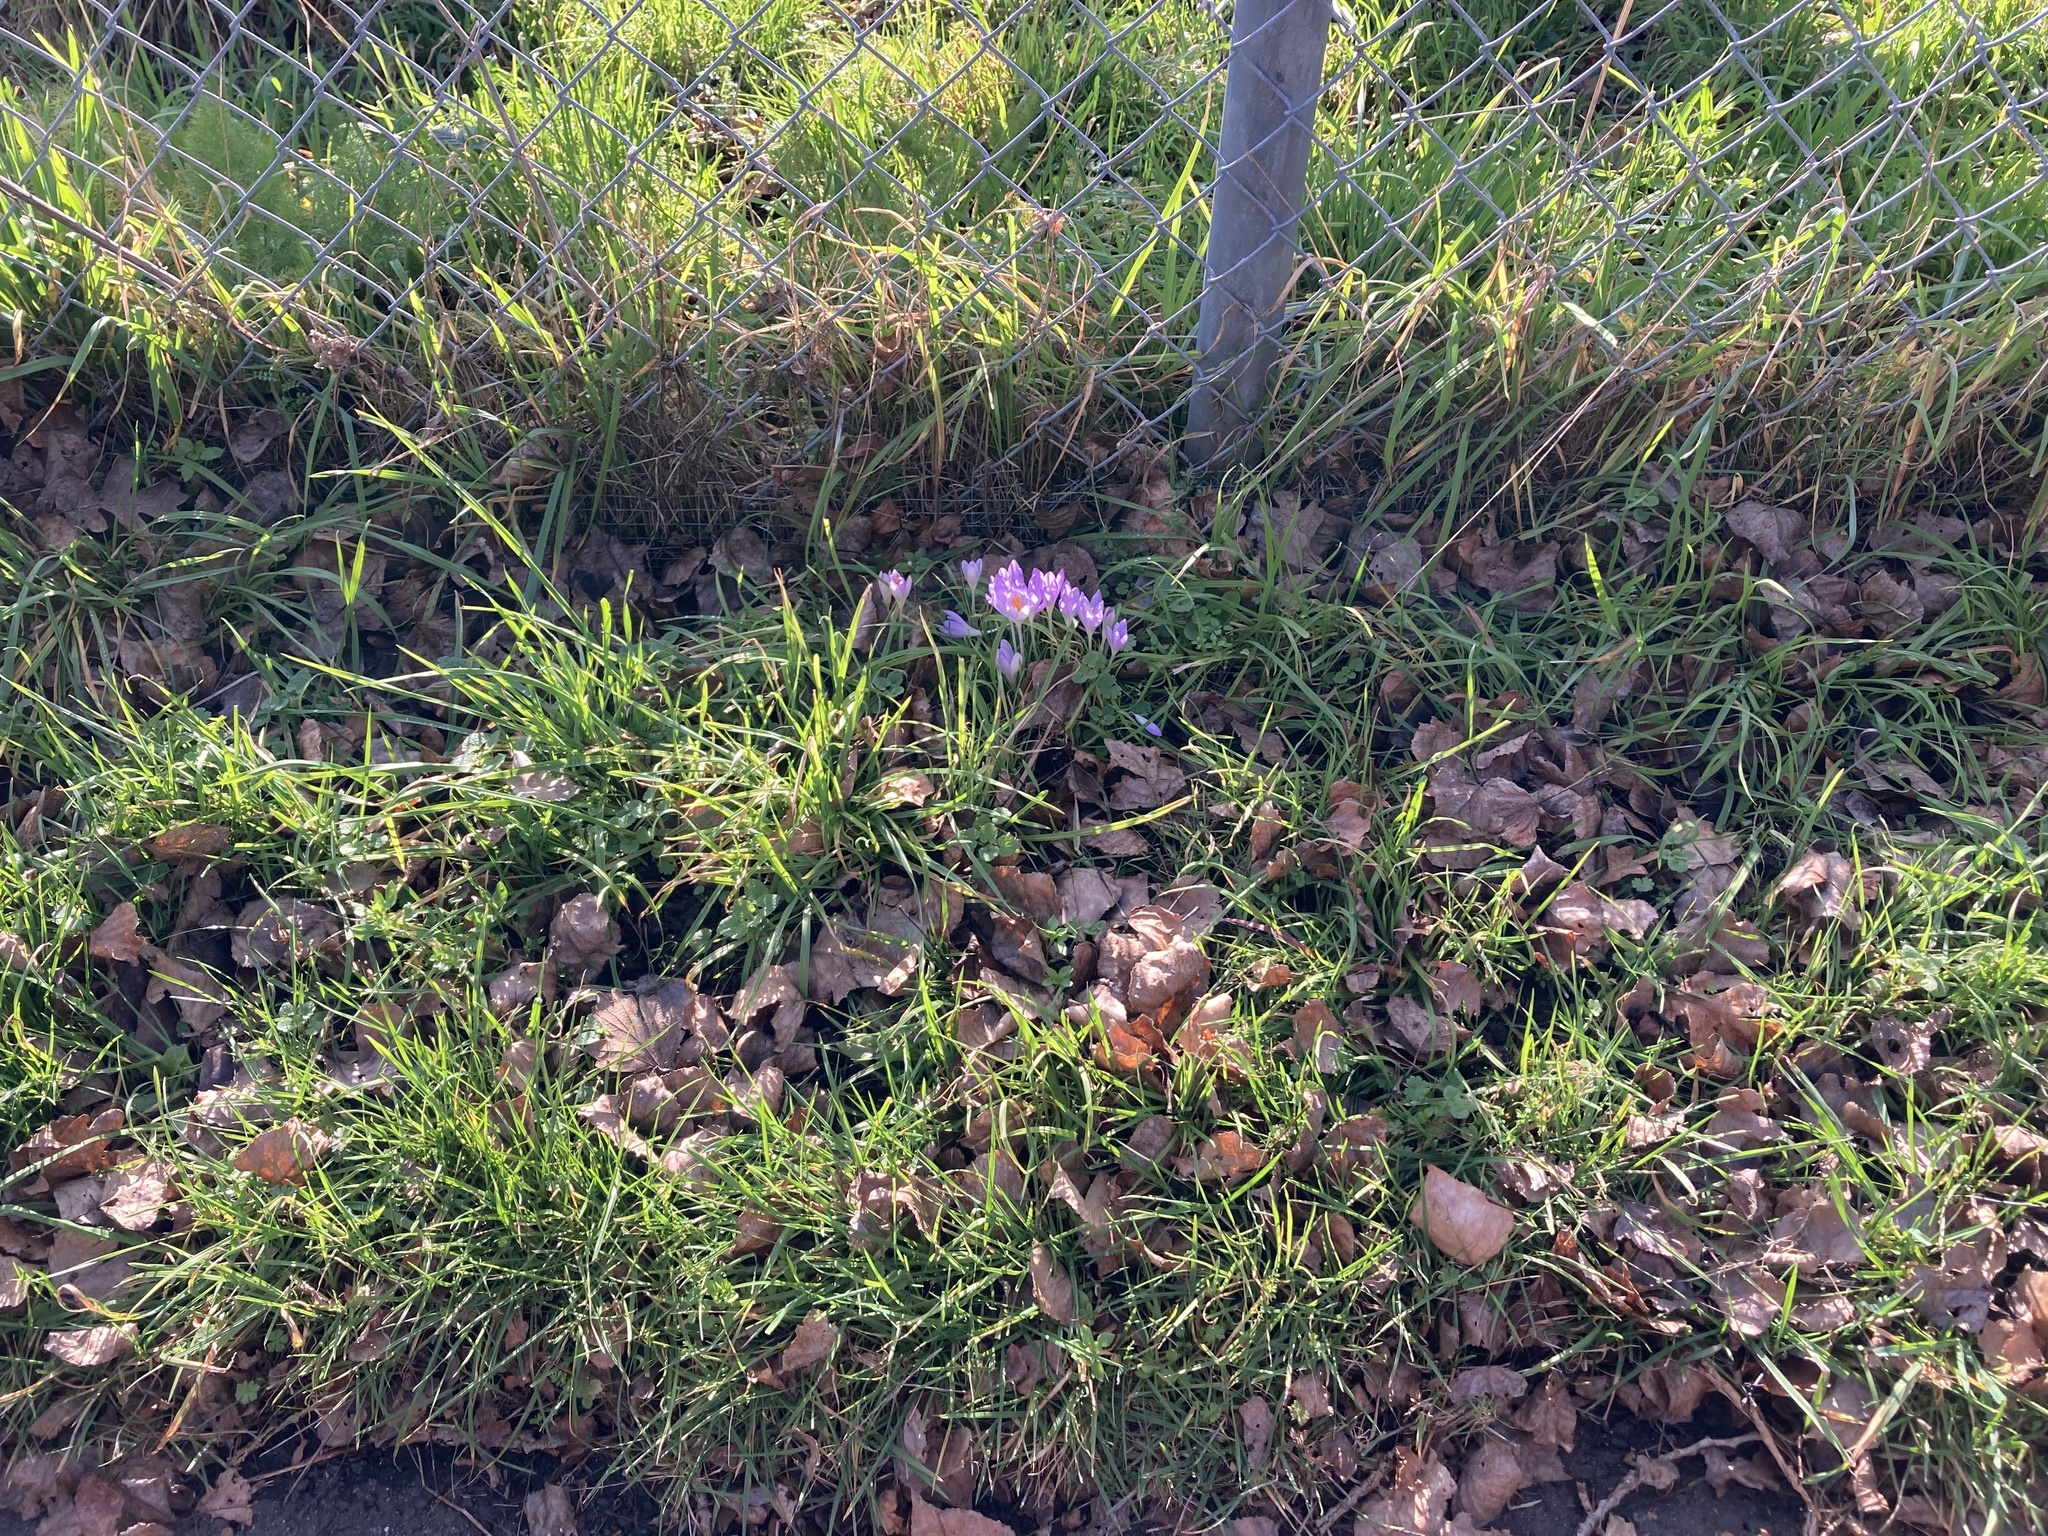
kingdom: Plantae
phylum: Tracheophyta
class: Liliopsida
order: Asparagales
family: Iridaceae
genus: Crocus
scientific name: Crocus tommasinianus
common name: Early crocus
